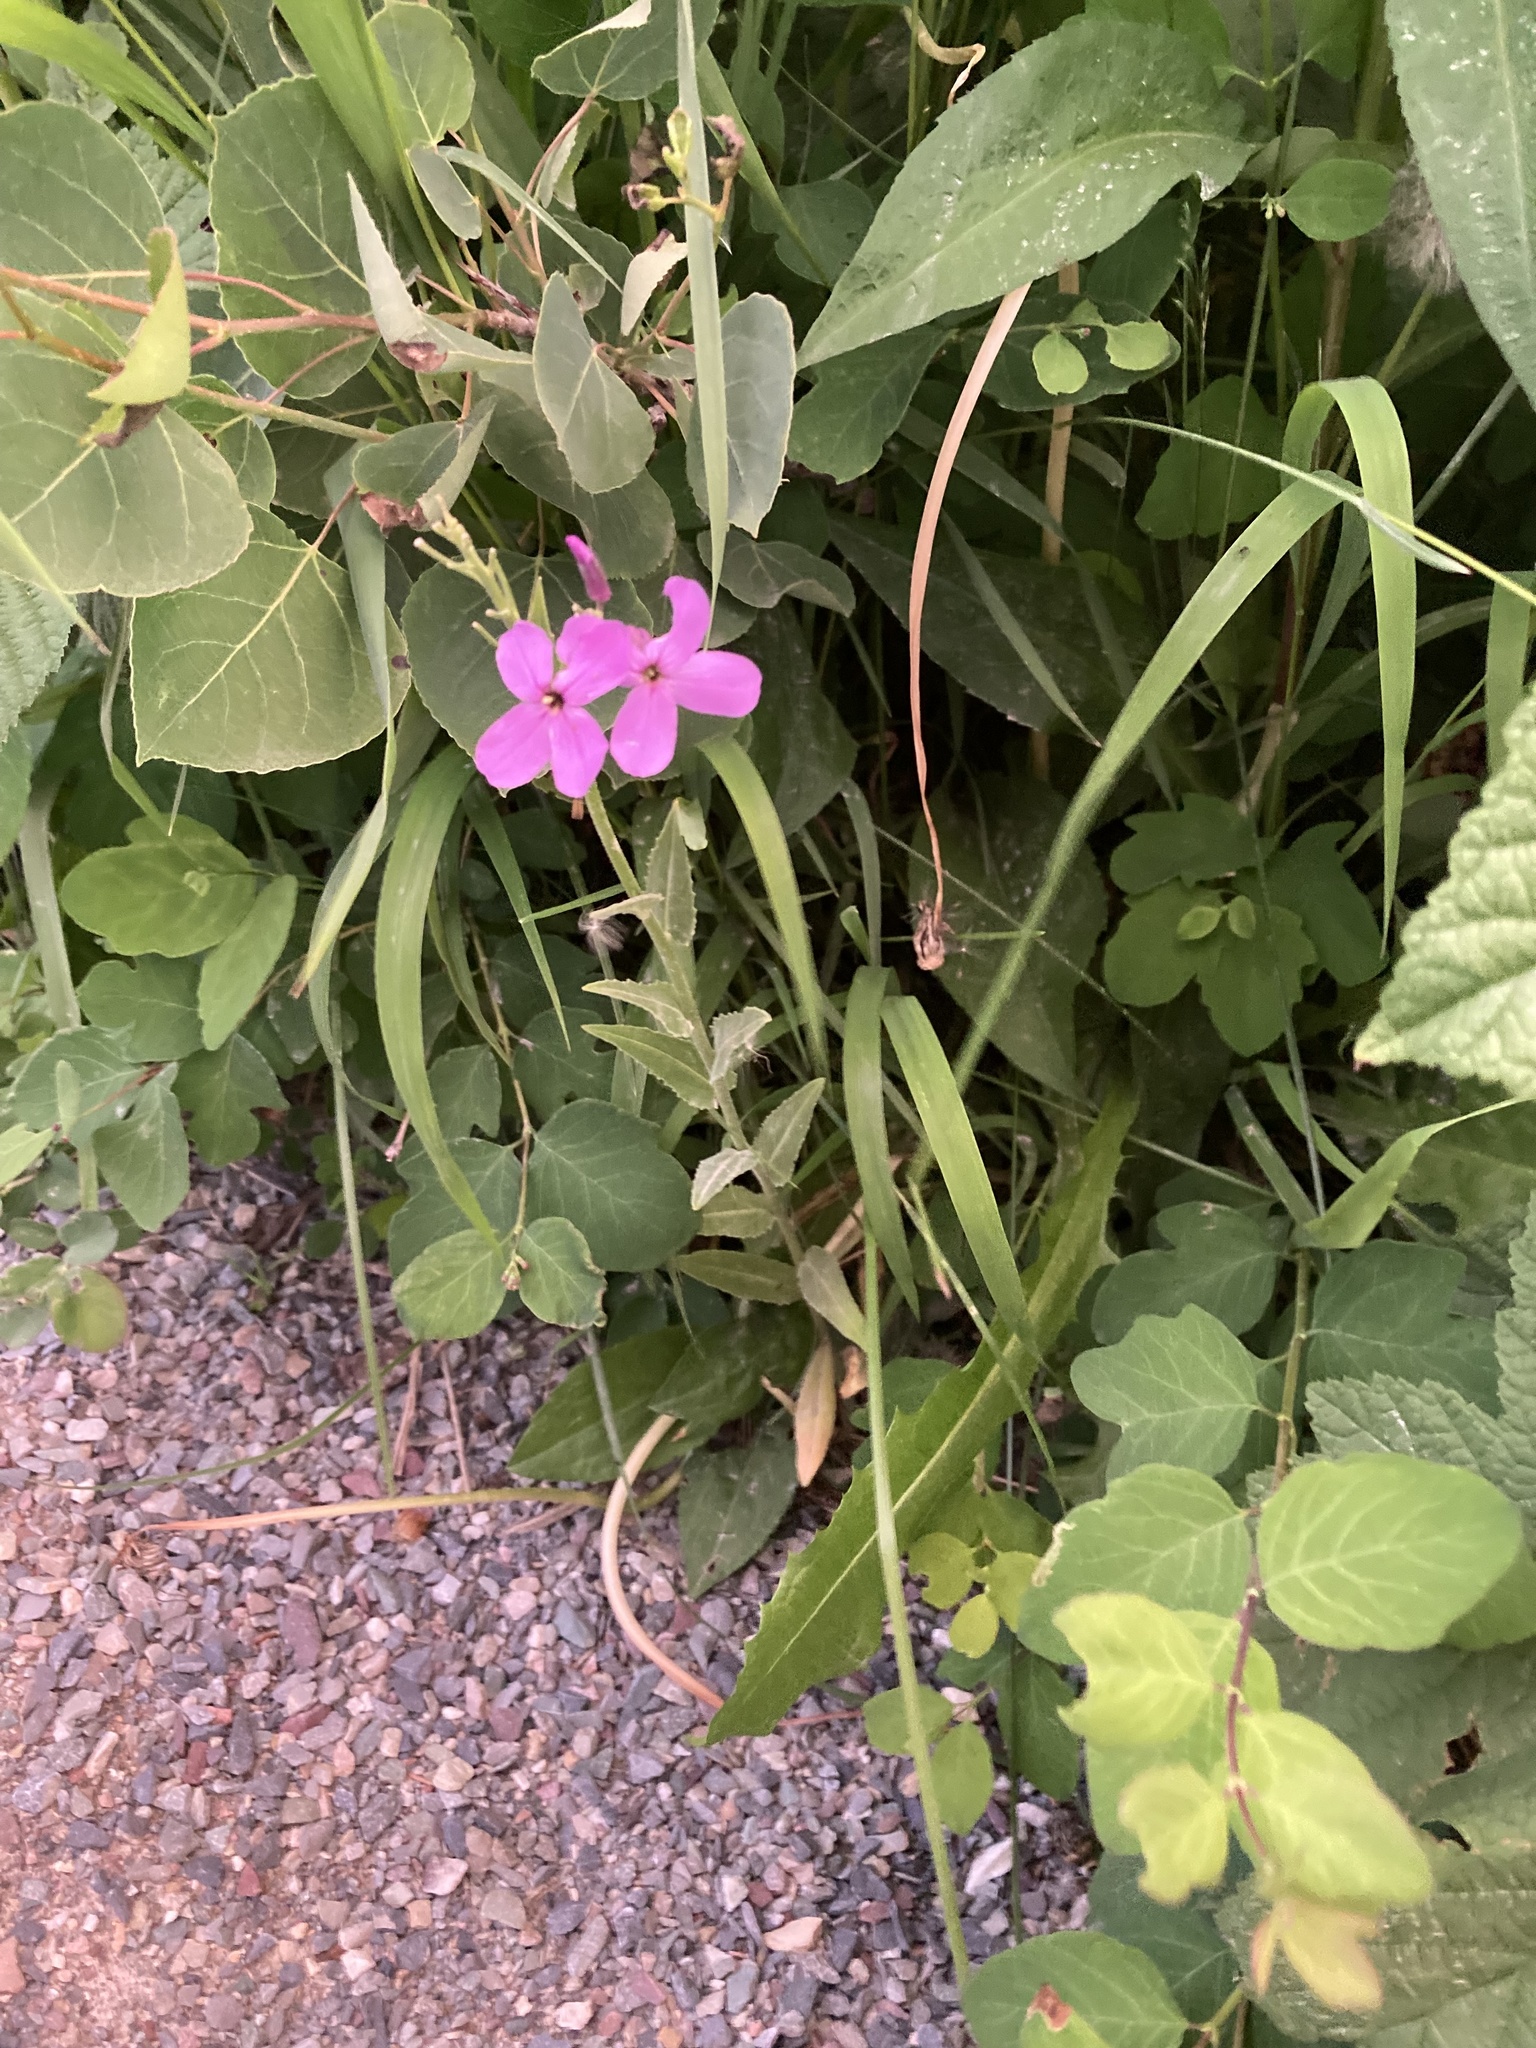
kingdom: Plantae
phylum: Tracheophyta
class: Magnoliopsida
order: Brassicales
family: Brassicaceae
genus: Hesperis
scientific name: Hesperis matronalis
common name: Dame's-violet
